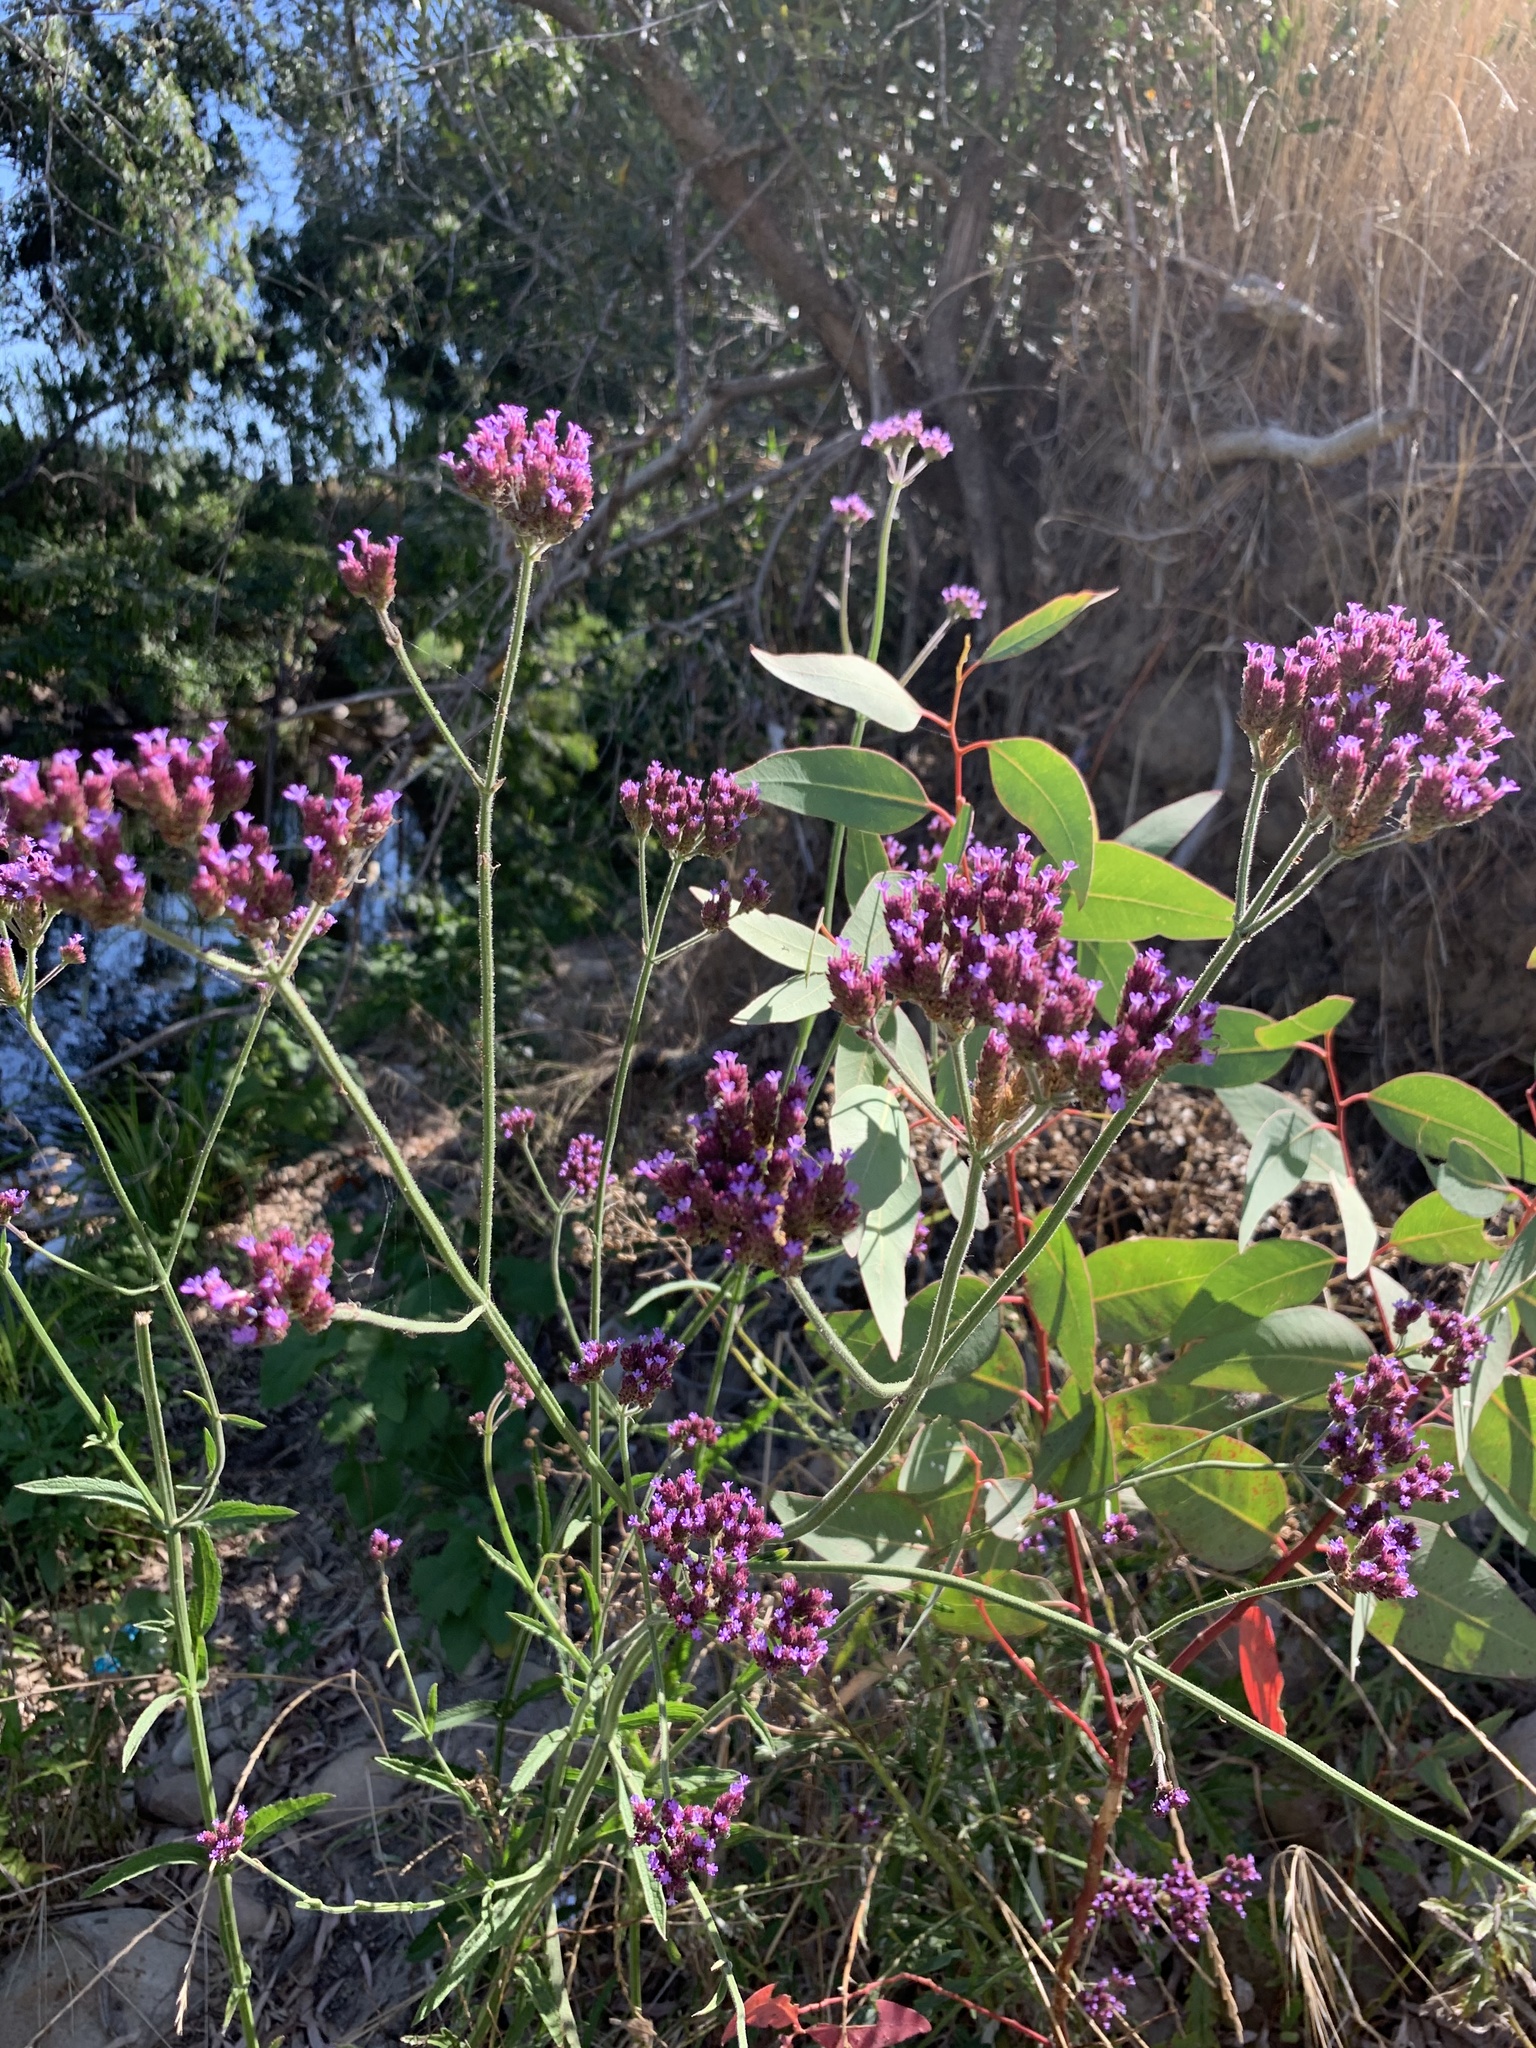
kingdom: Plantae
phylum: Tracheophyta
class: Magnoliopsida
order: Lamiales
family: Verbenaceae
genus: Verbena
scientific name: Verbena bonariensis
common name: Purpletop vervain
